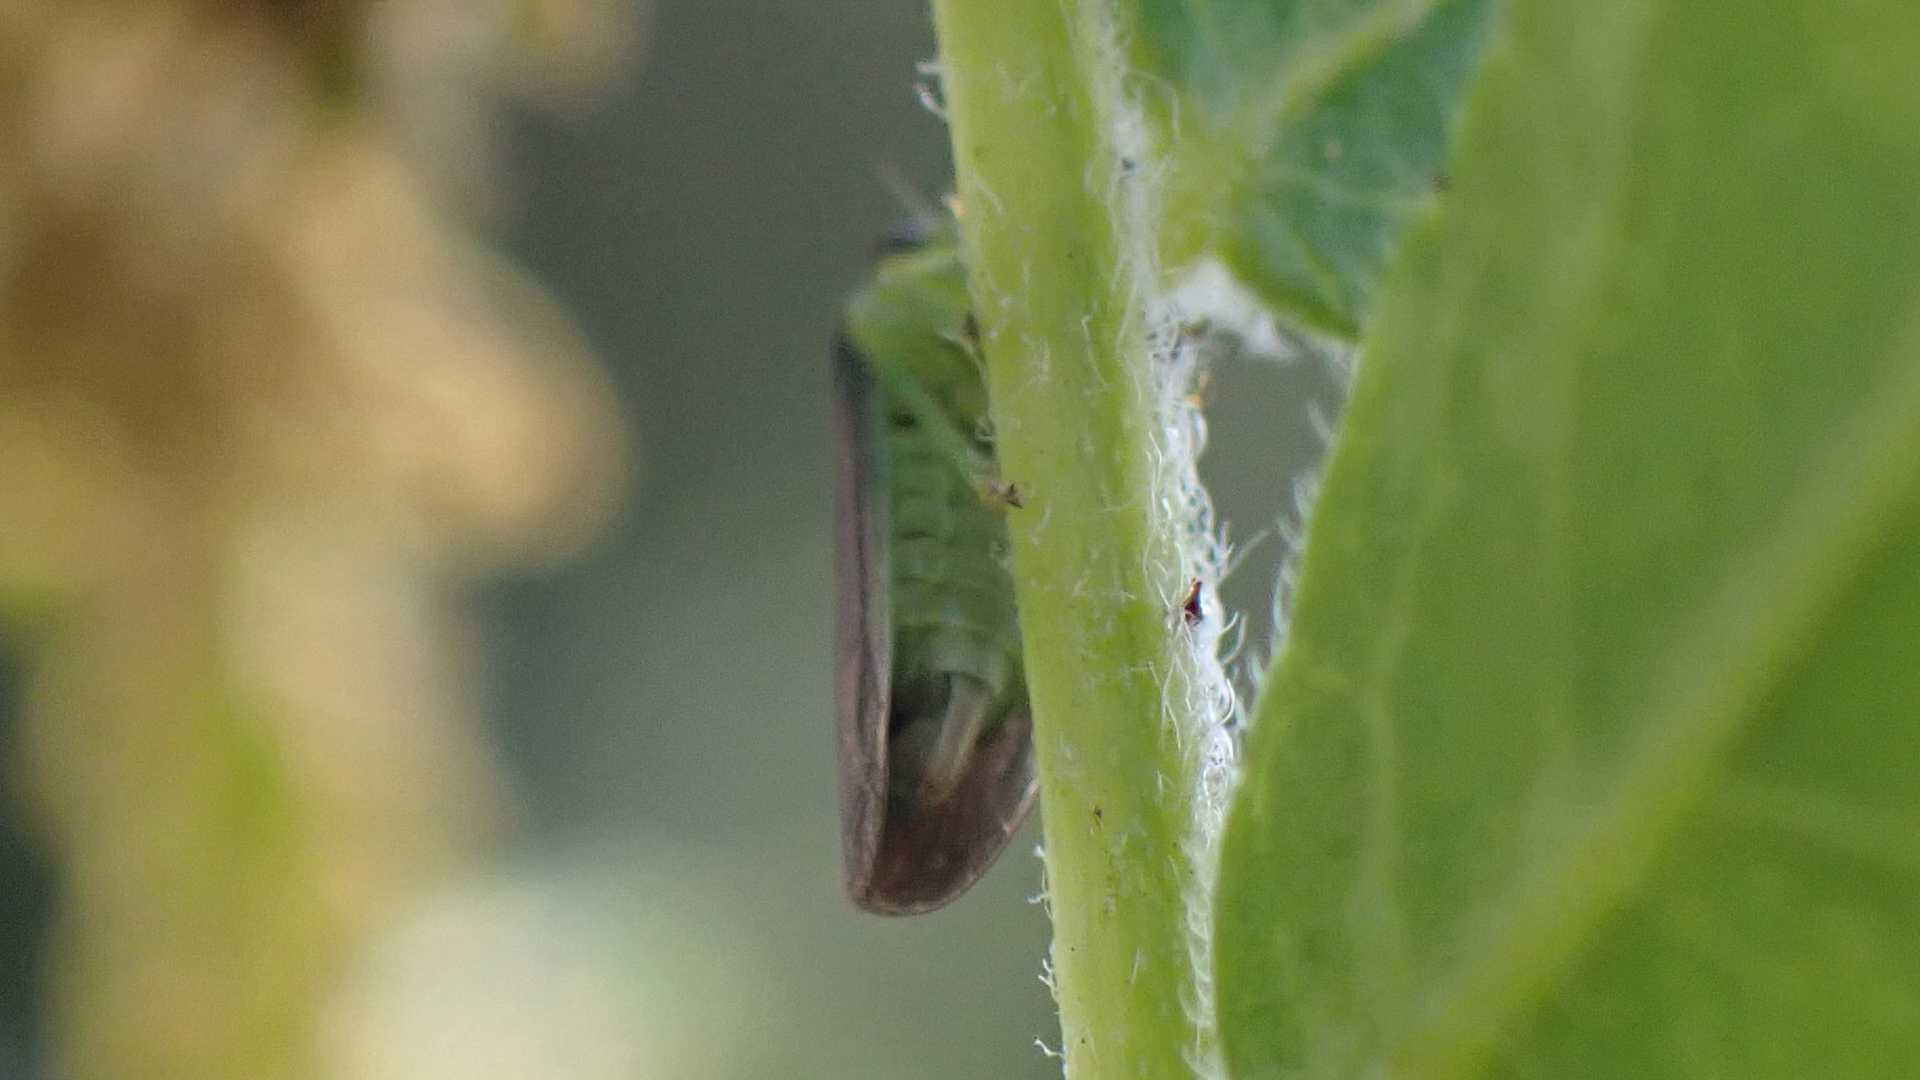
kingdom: Animalia
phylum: Arthropoda
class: Insecta
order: Hemiptera
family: Cicadellidae
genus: Macropsis
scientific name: Macropsis fumipennis
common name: The honeylocust leafhopper
